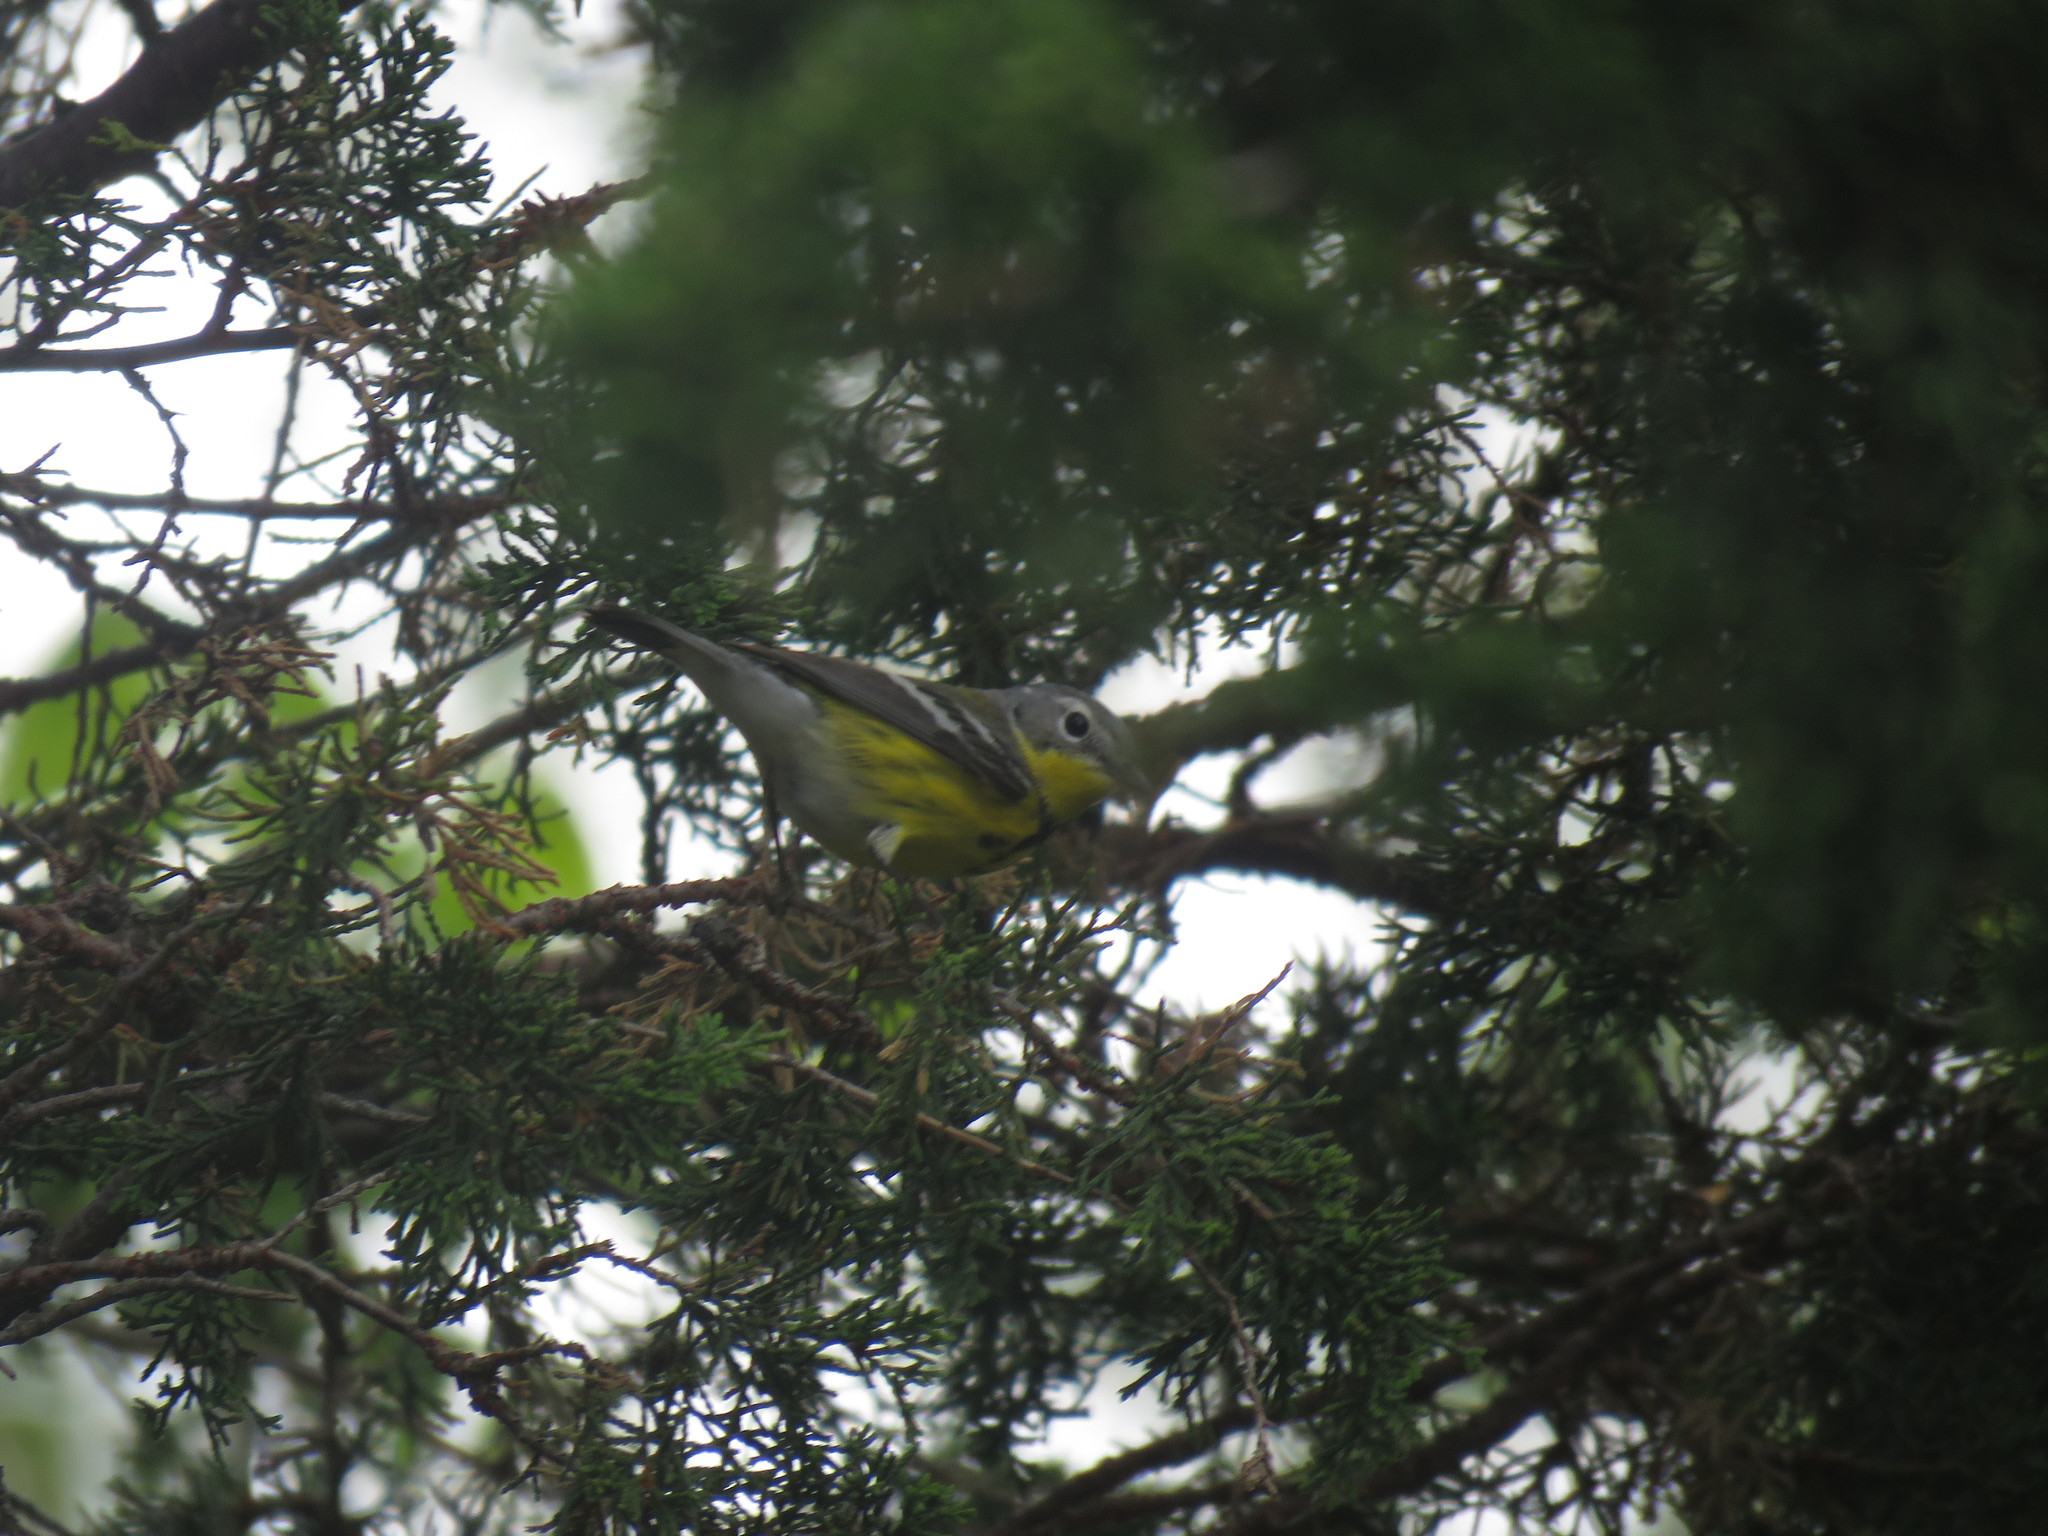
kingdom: Animalia
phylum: Chordata
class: Aves
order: Passeriformes
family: Parulidae
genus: Setophaga
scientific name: Setophaga magnolia
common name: Magnolia warbler
